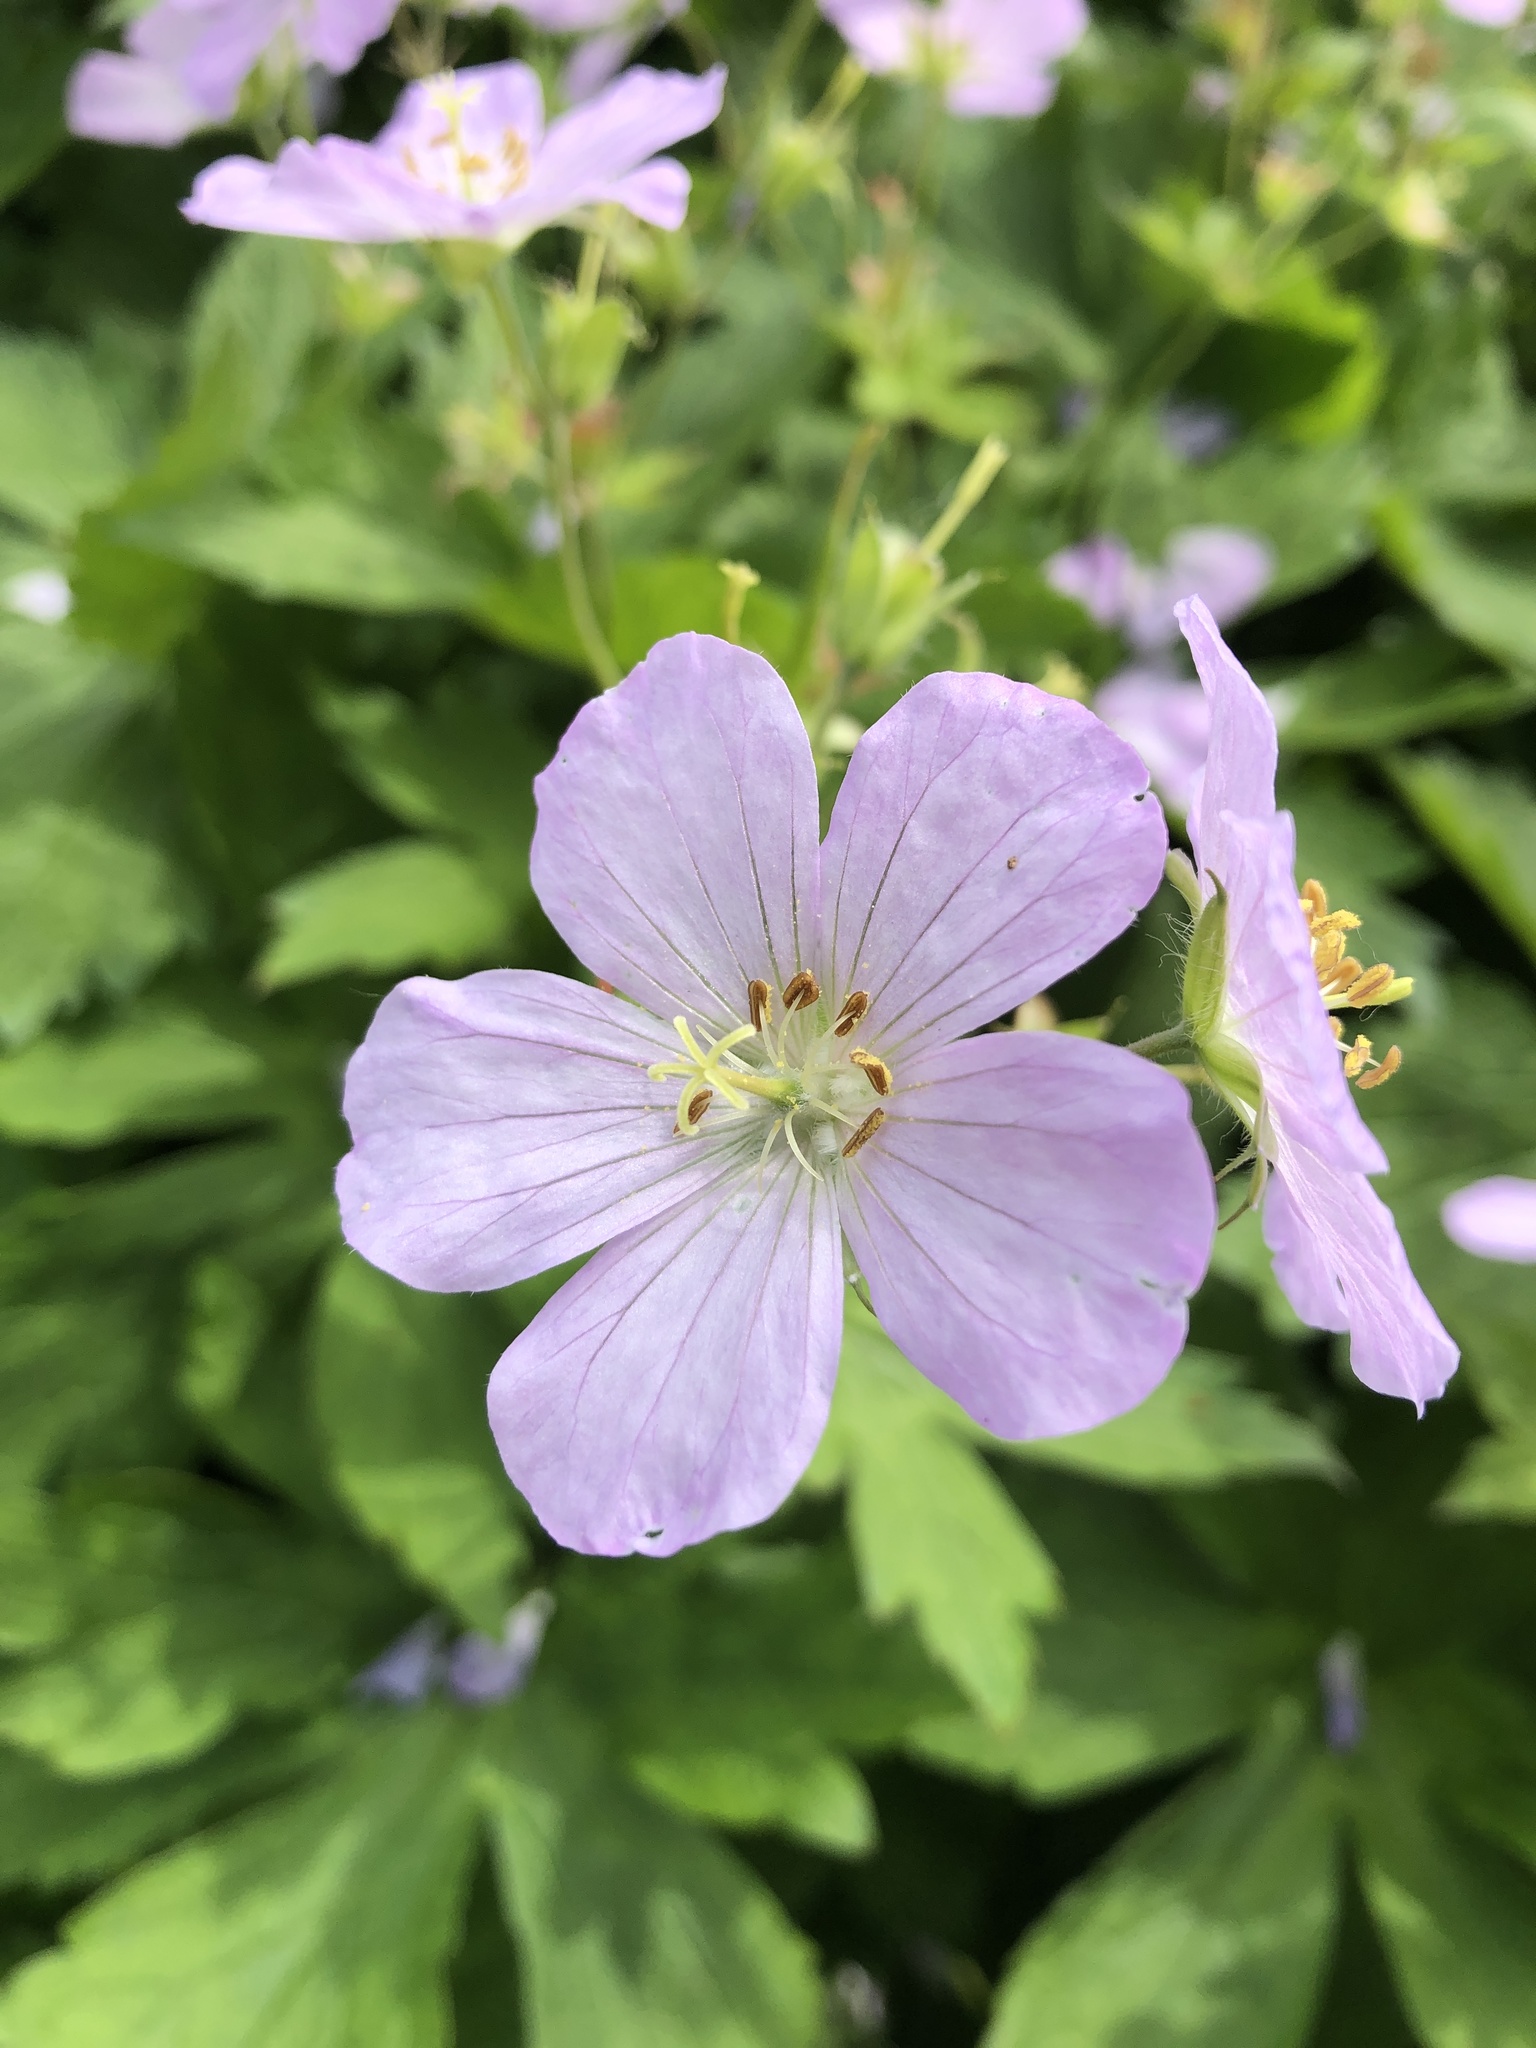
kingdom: Plantae
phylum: Tracheophyta
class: Magnoliopsida
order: Geraniales
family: Geraniaceae
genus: Geranium
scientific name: Geranium maculatum
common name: Spotted geranium
